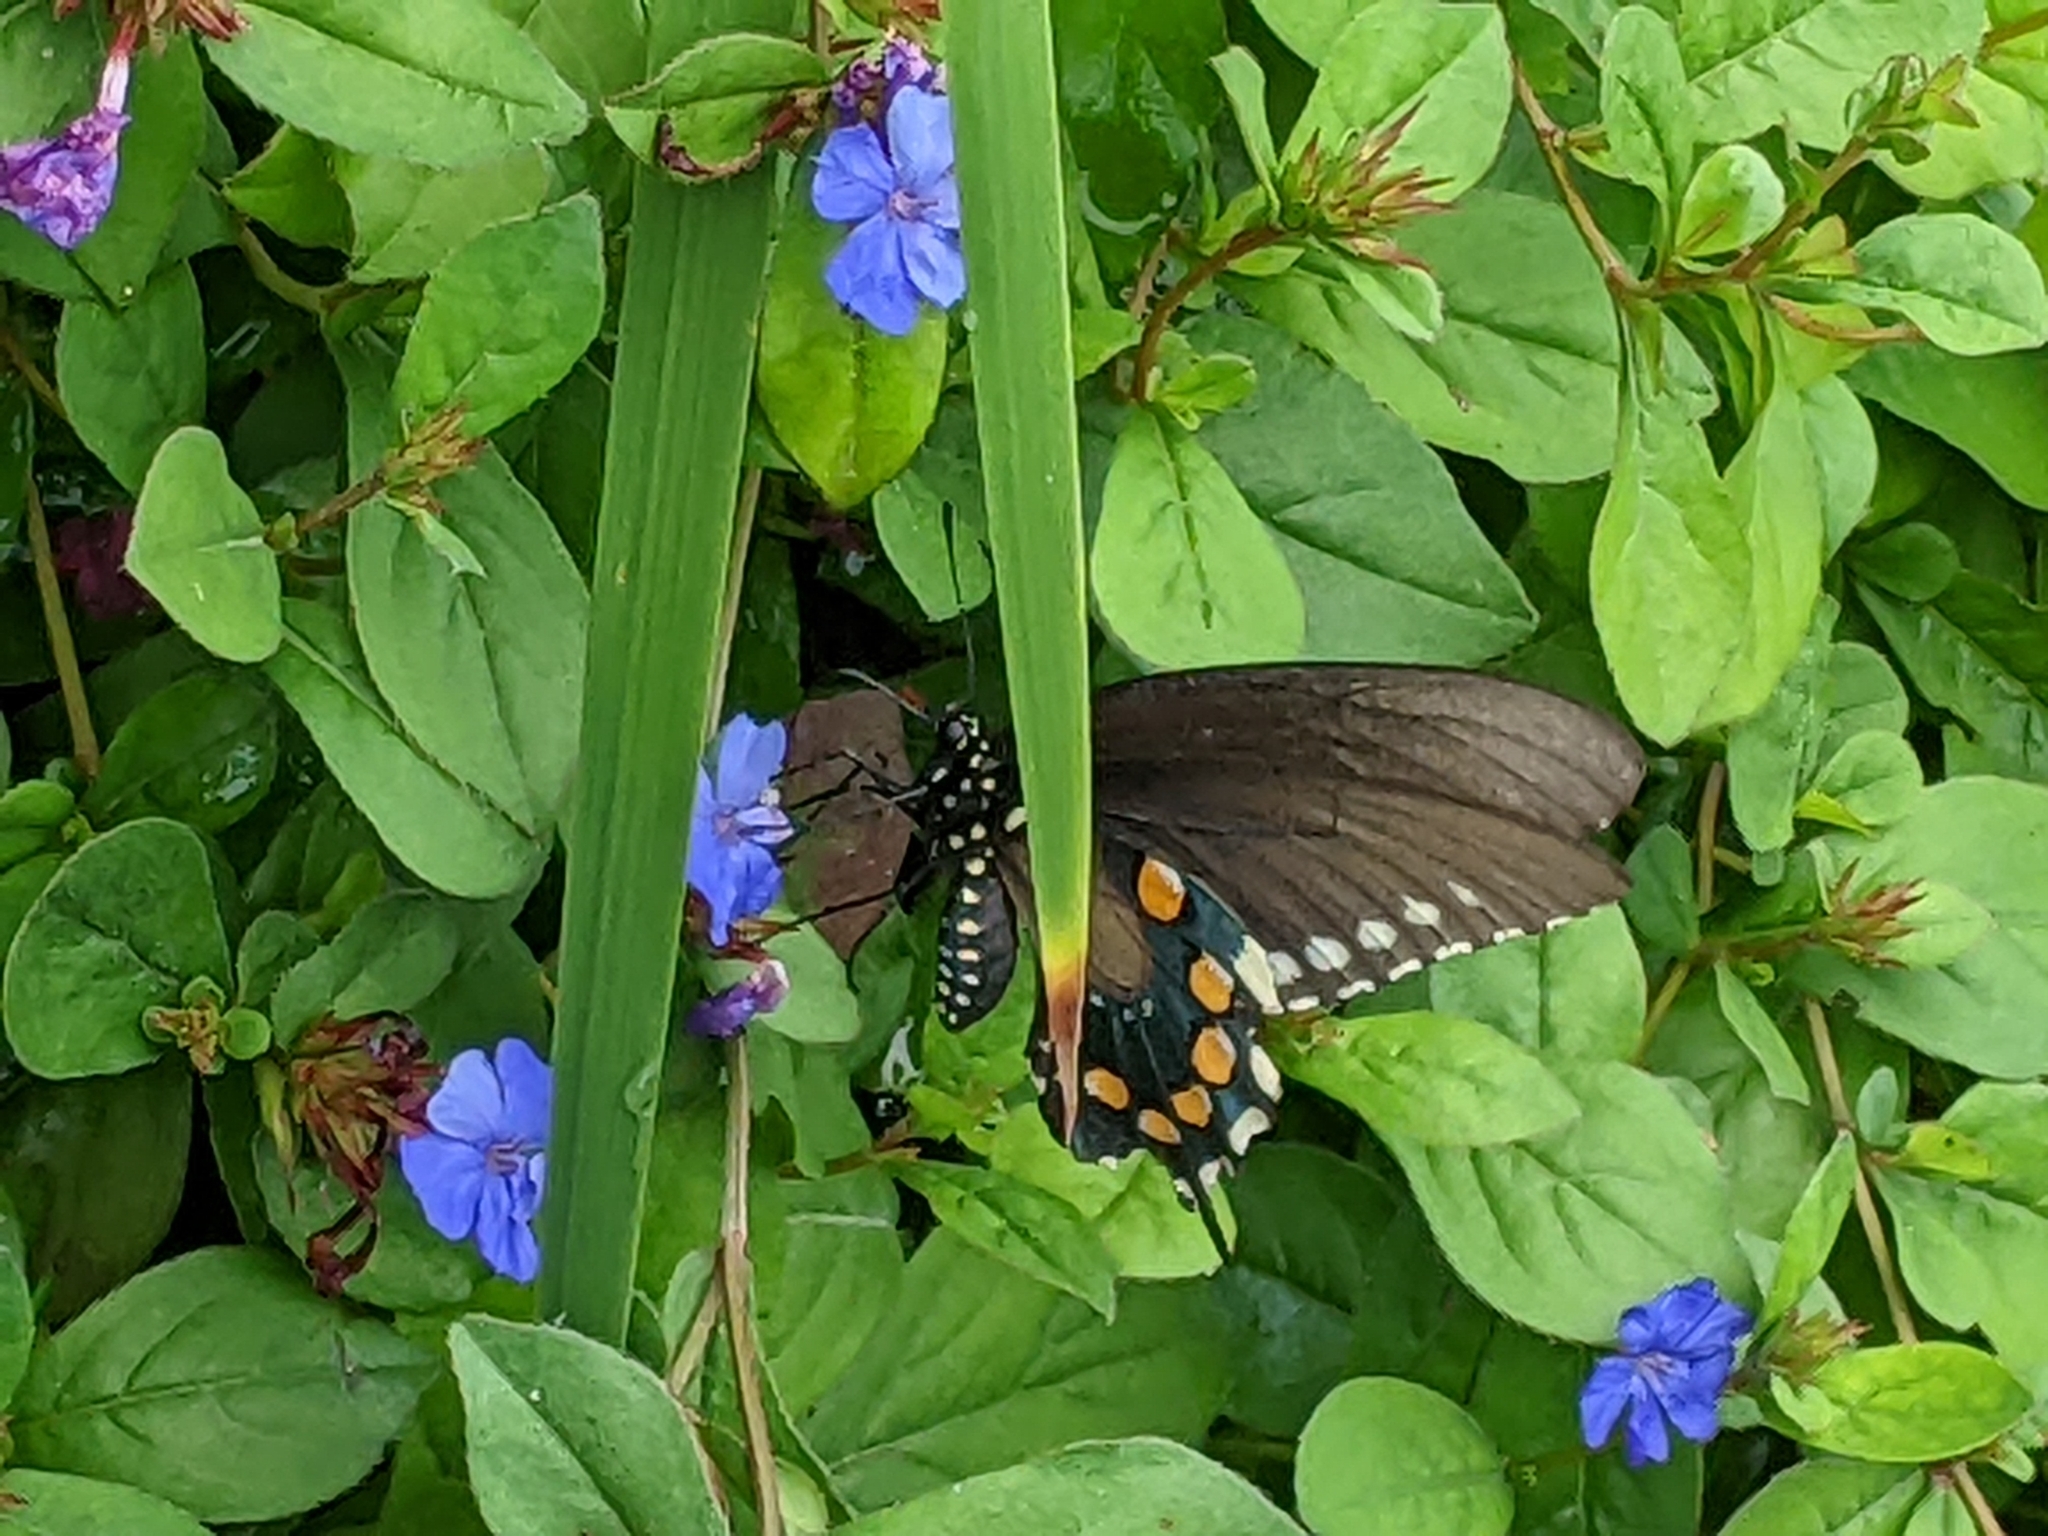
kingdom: Animalia
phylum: Arthropoda
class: Insecta
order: Lepidoptera
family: Papilionidae
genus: Battus
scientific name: Battus philenor
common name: Pipevine swallowtail
